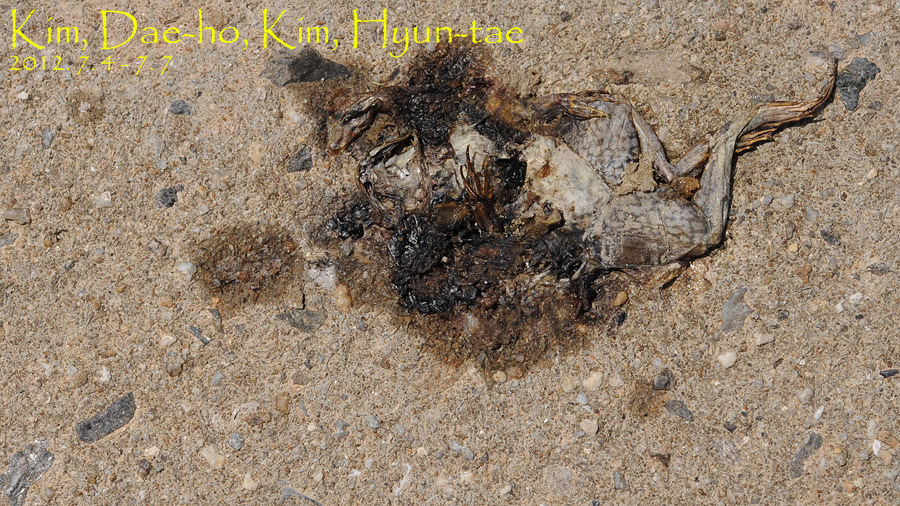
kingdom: Animalia
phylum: Chordata
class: Amphibia
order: Anura
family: Ranidae
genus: Lithobates
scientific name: Lithobates catesbeianus
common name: American bullfrog
